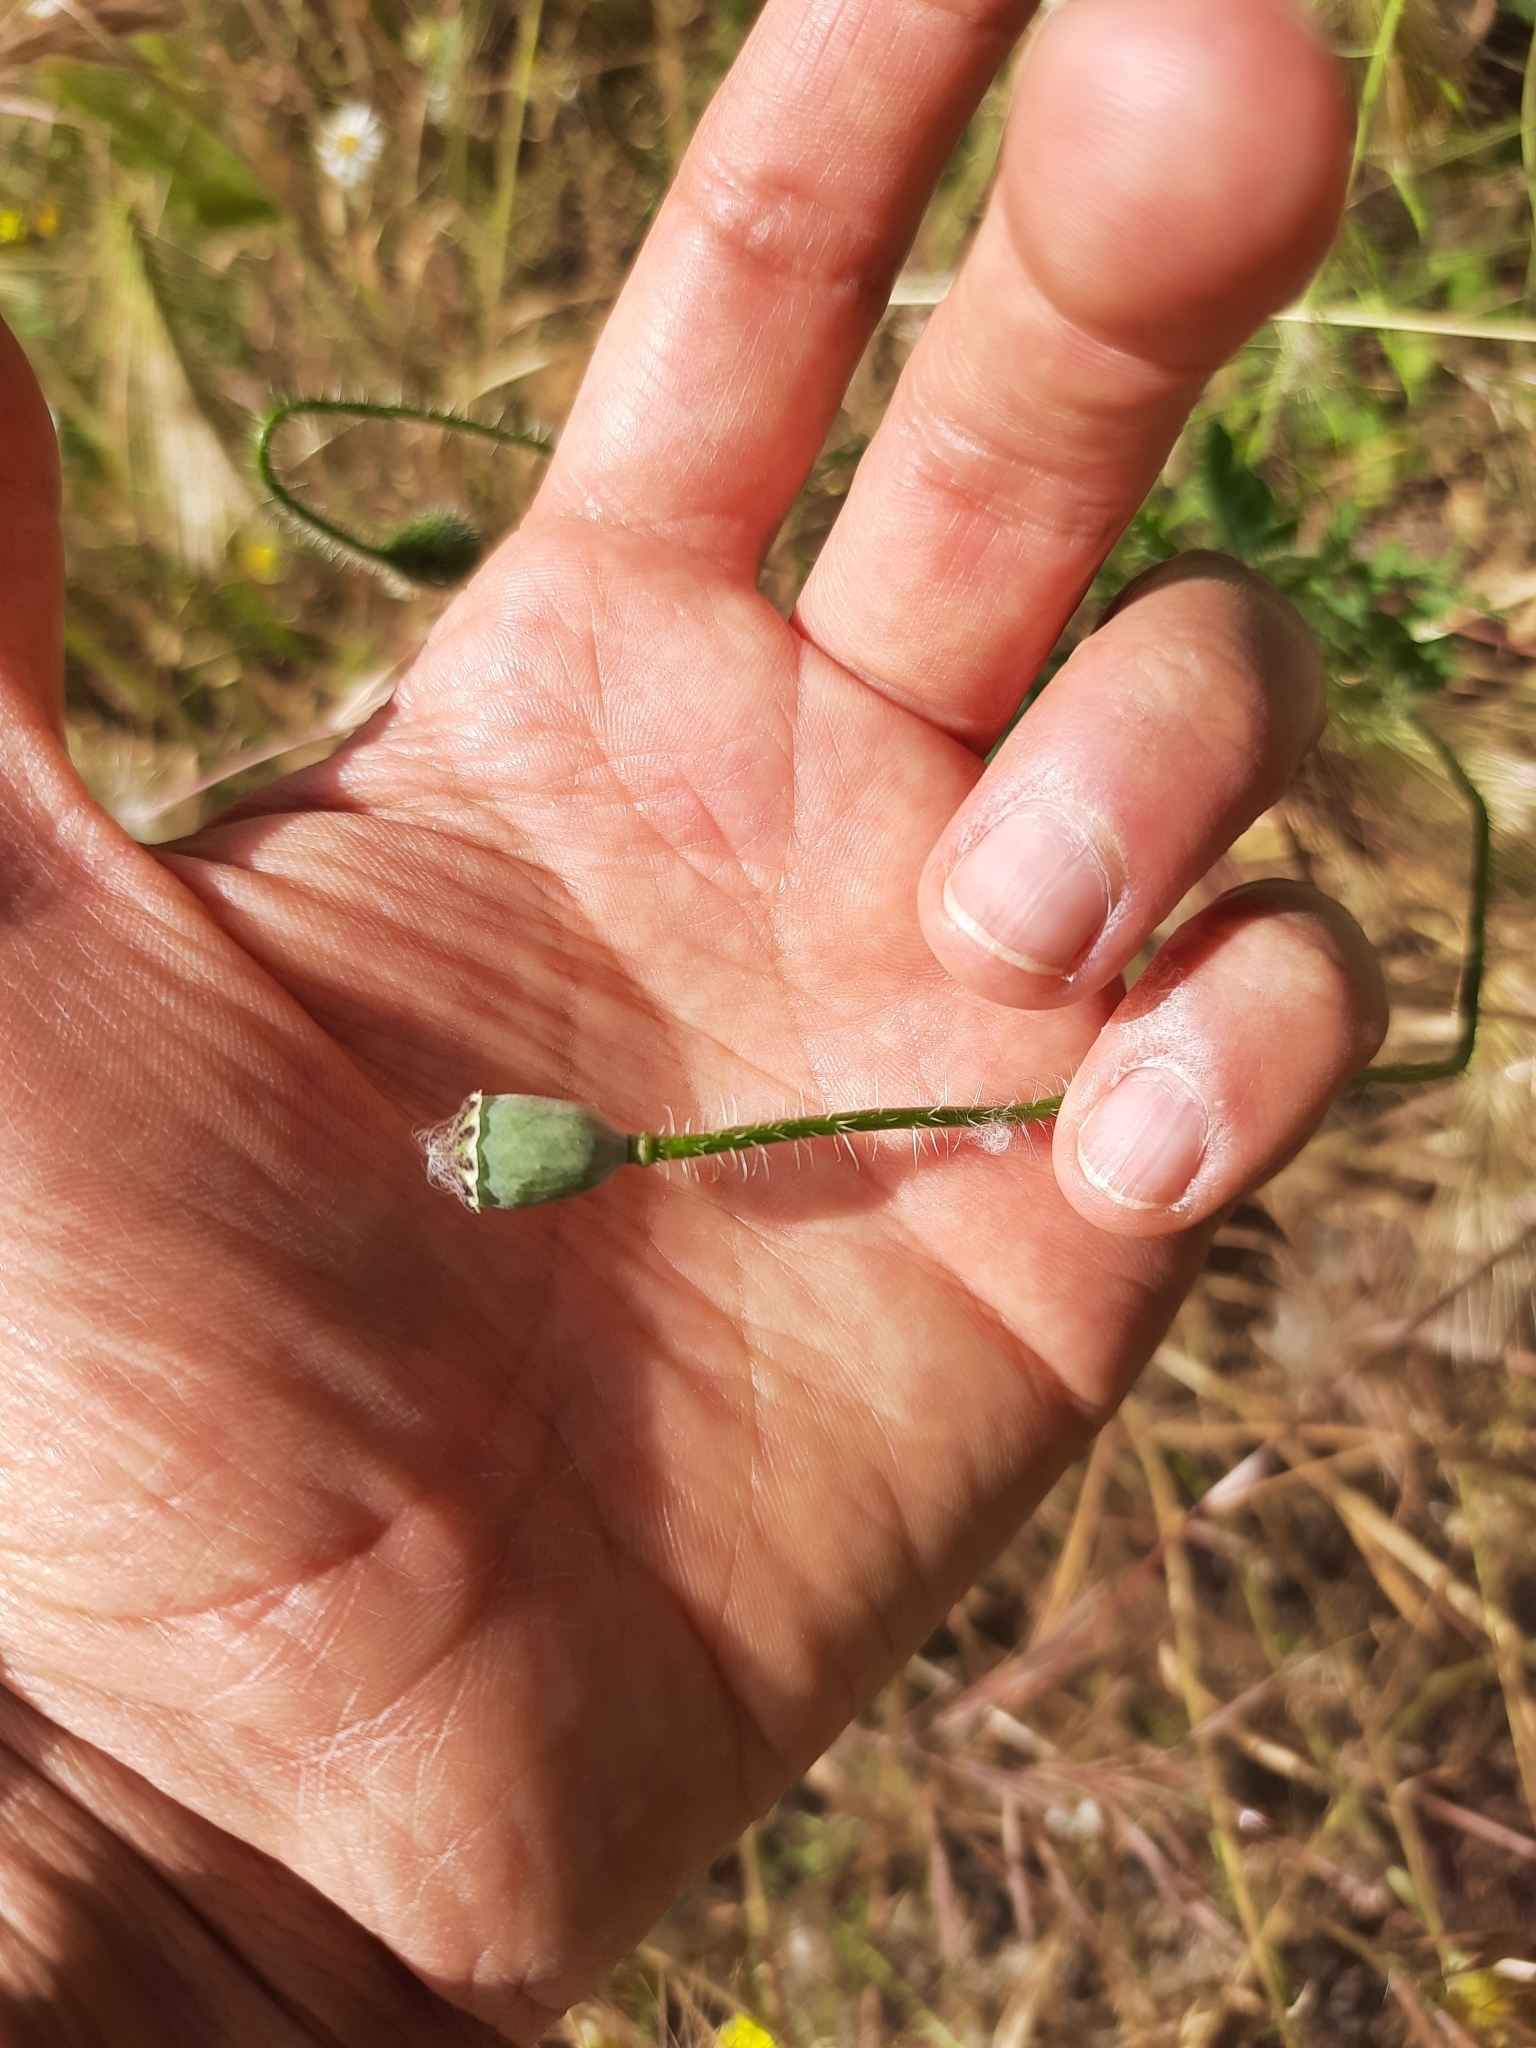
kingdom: Plantae
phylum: Tracheophyta
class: Magnoliopsida
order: Ranunculales
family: Papaveraceae
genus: Papaver
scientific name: Papaver rhoeas
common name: Corn poppy
